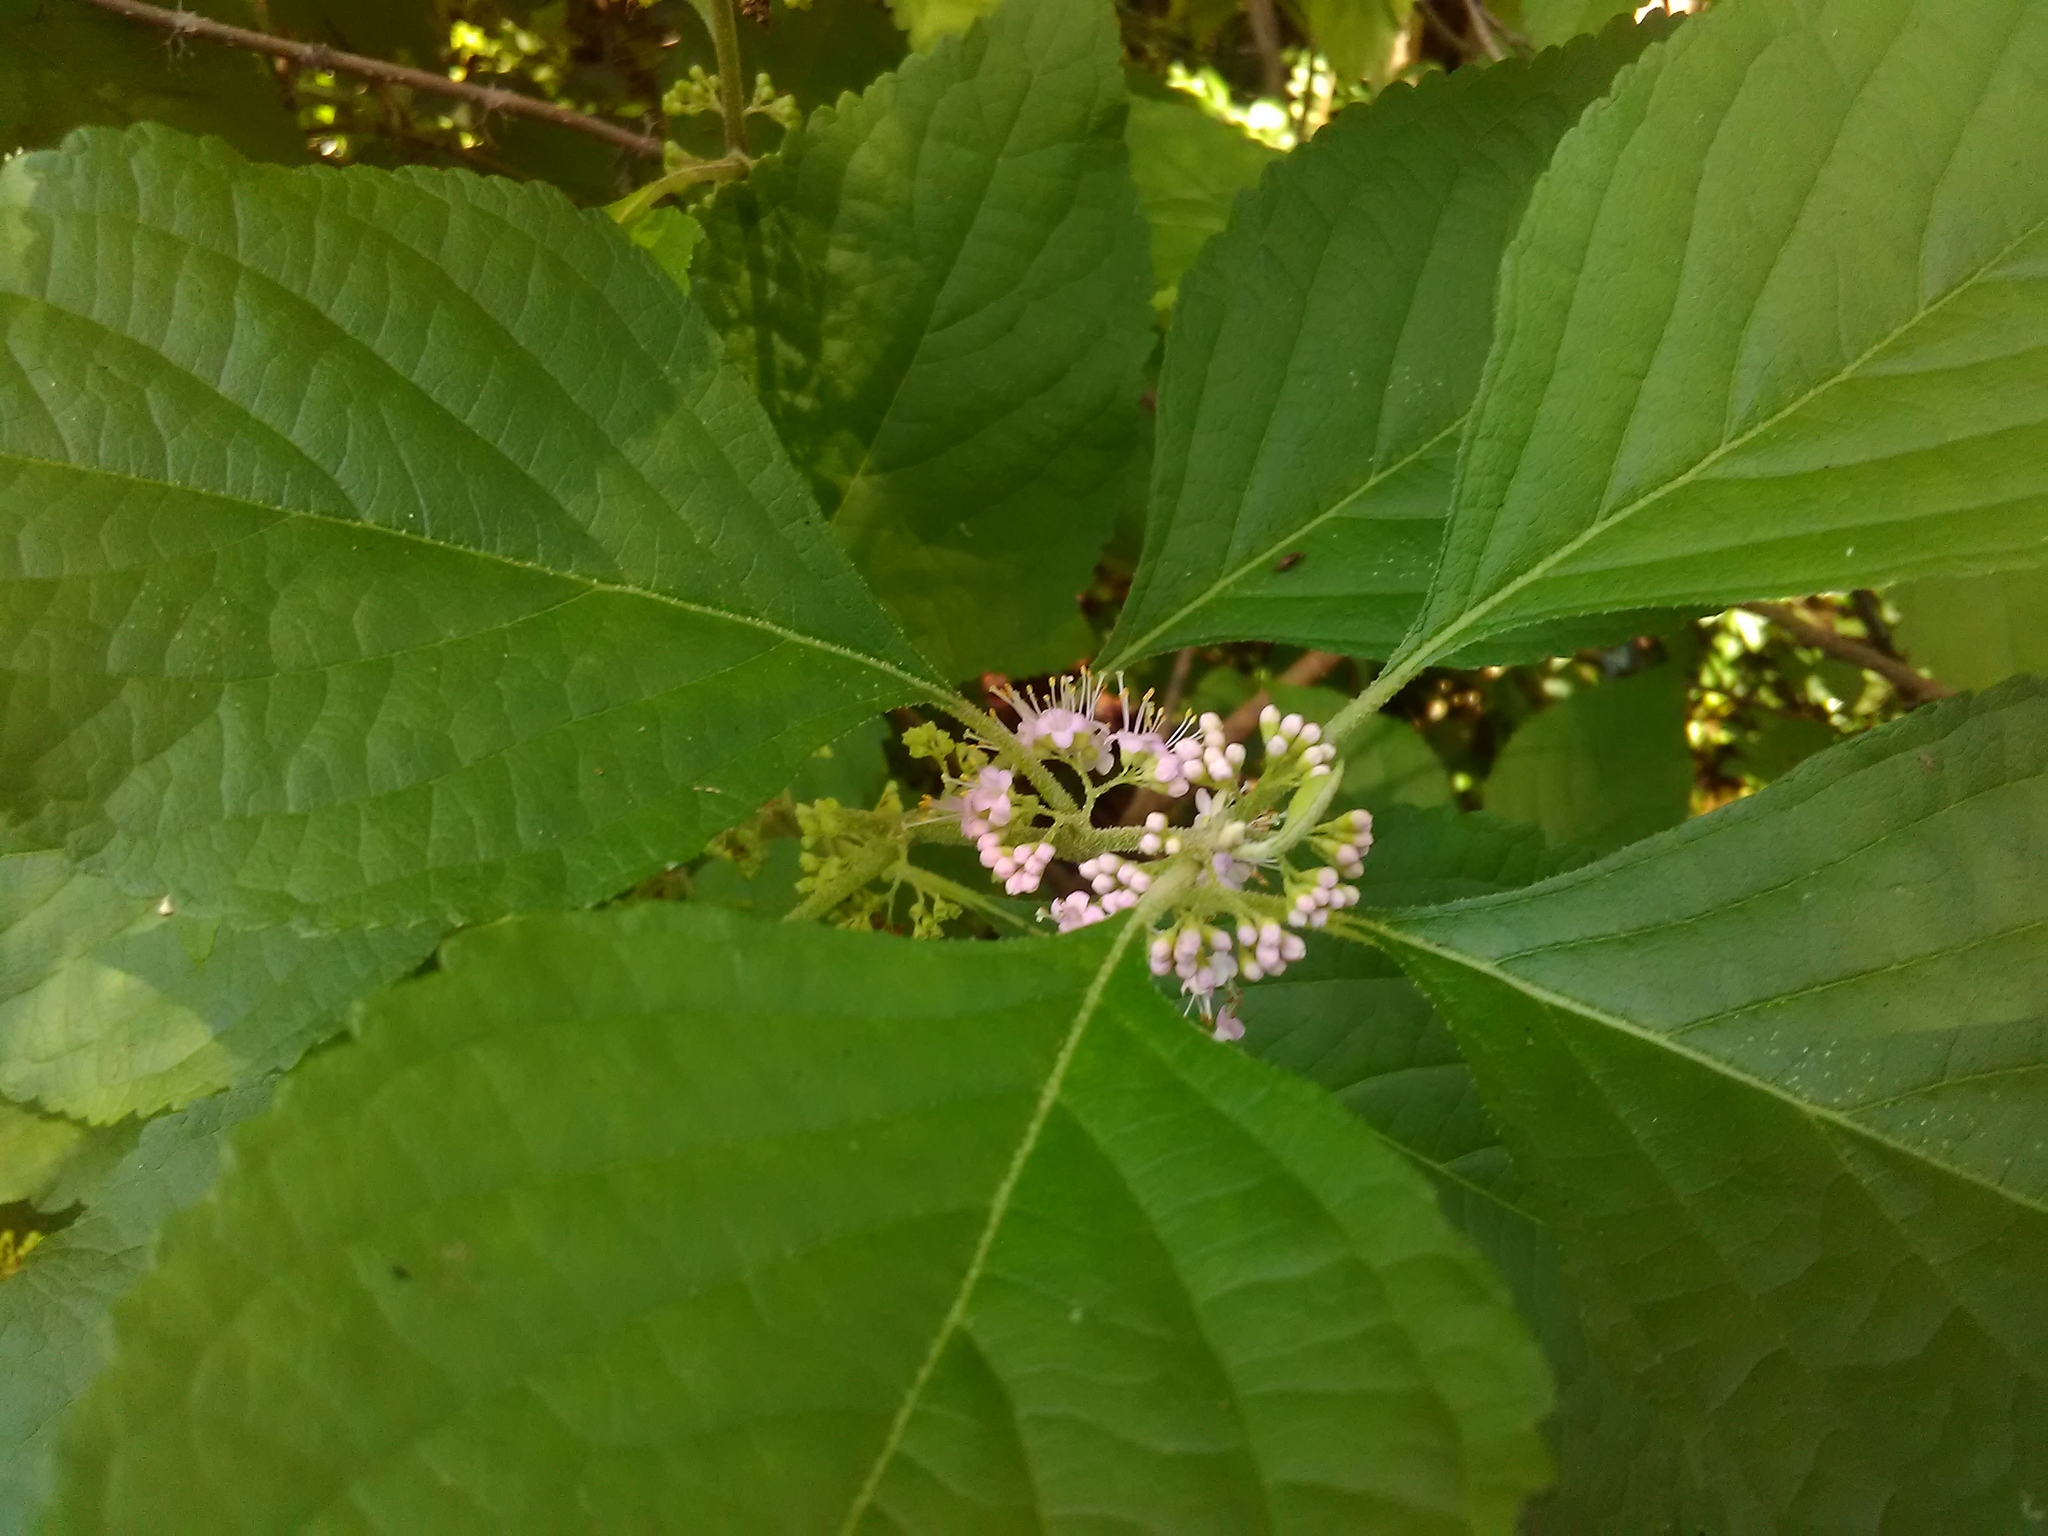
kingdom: Plantae
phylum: Tracheophyta
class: Magnoliopsida
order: Lamiales
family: Lamiaceae
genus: Callicarpa
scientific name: Callicarpa americana
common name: American beautyberry
